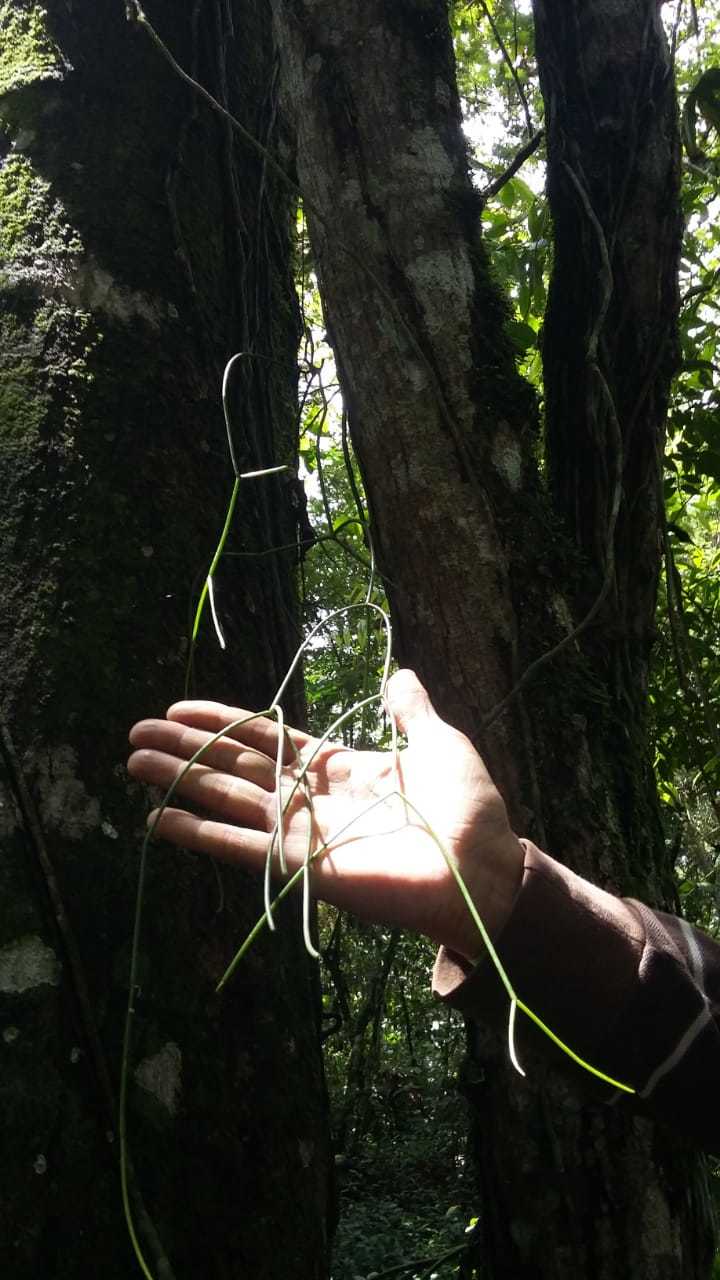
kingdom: Plantae
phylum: Tracheophyta
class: Magnoliopsida
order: Caryophyllales
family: Cactaceae
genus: Rhipsalis
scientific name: Rhipsalis baccifera
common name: Mistletoe cactus
